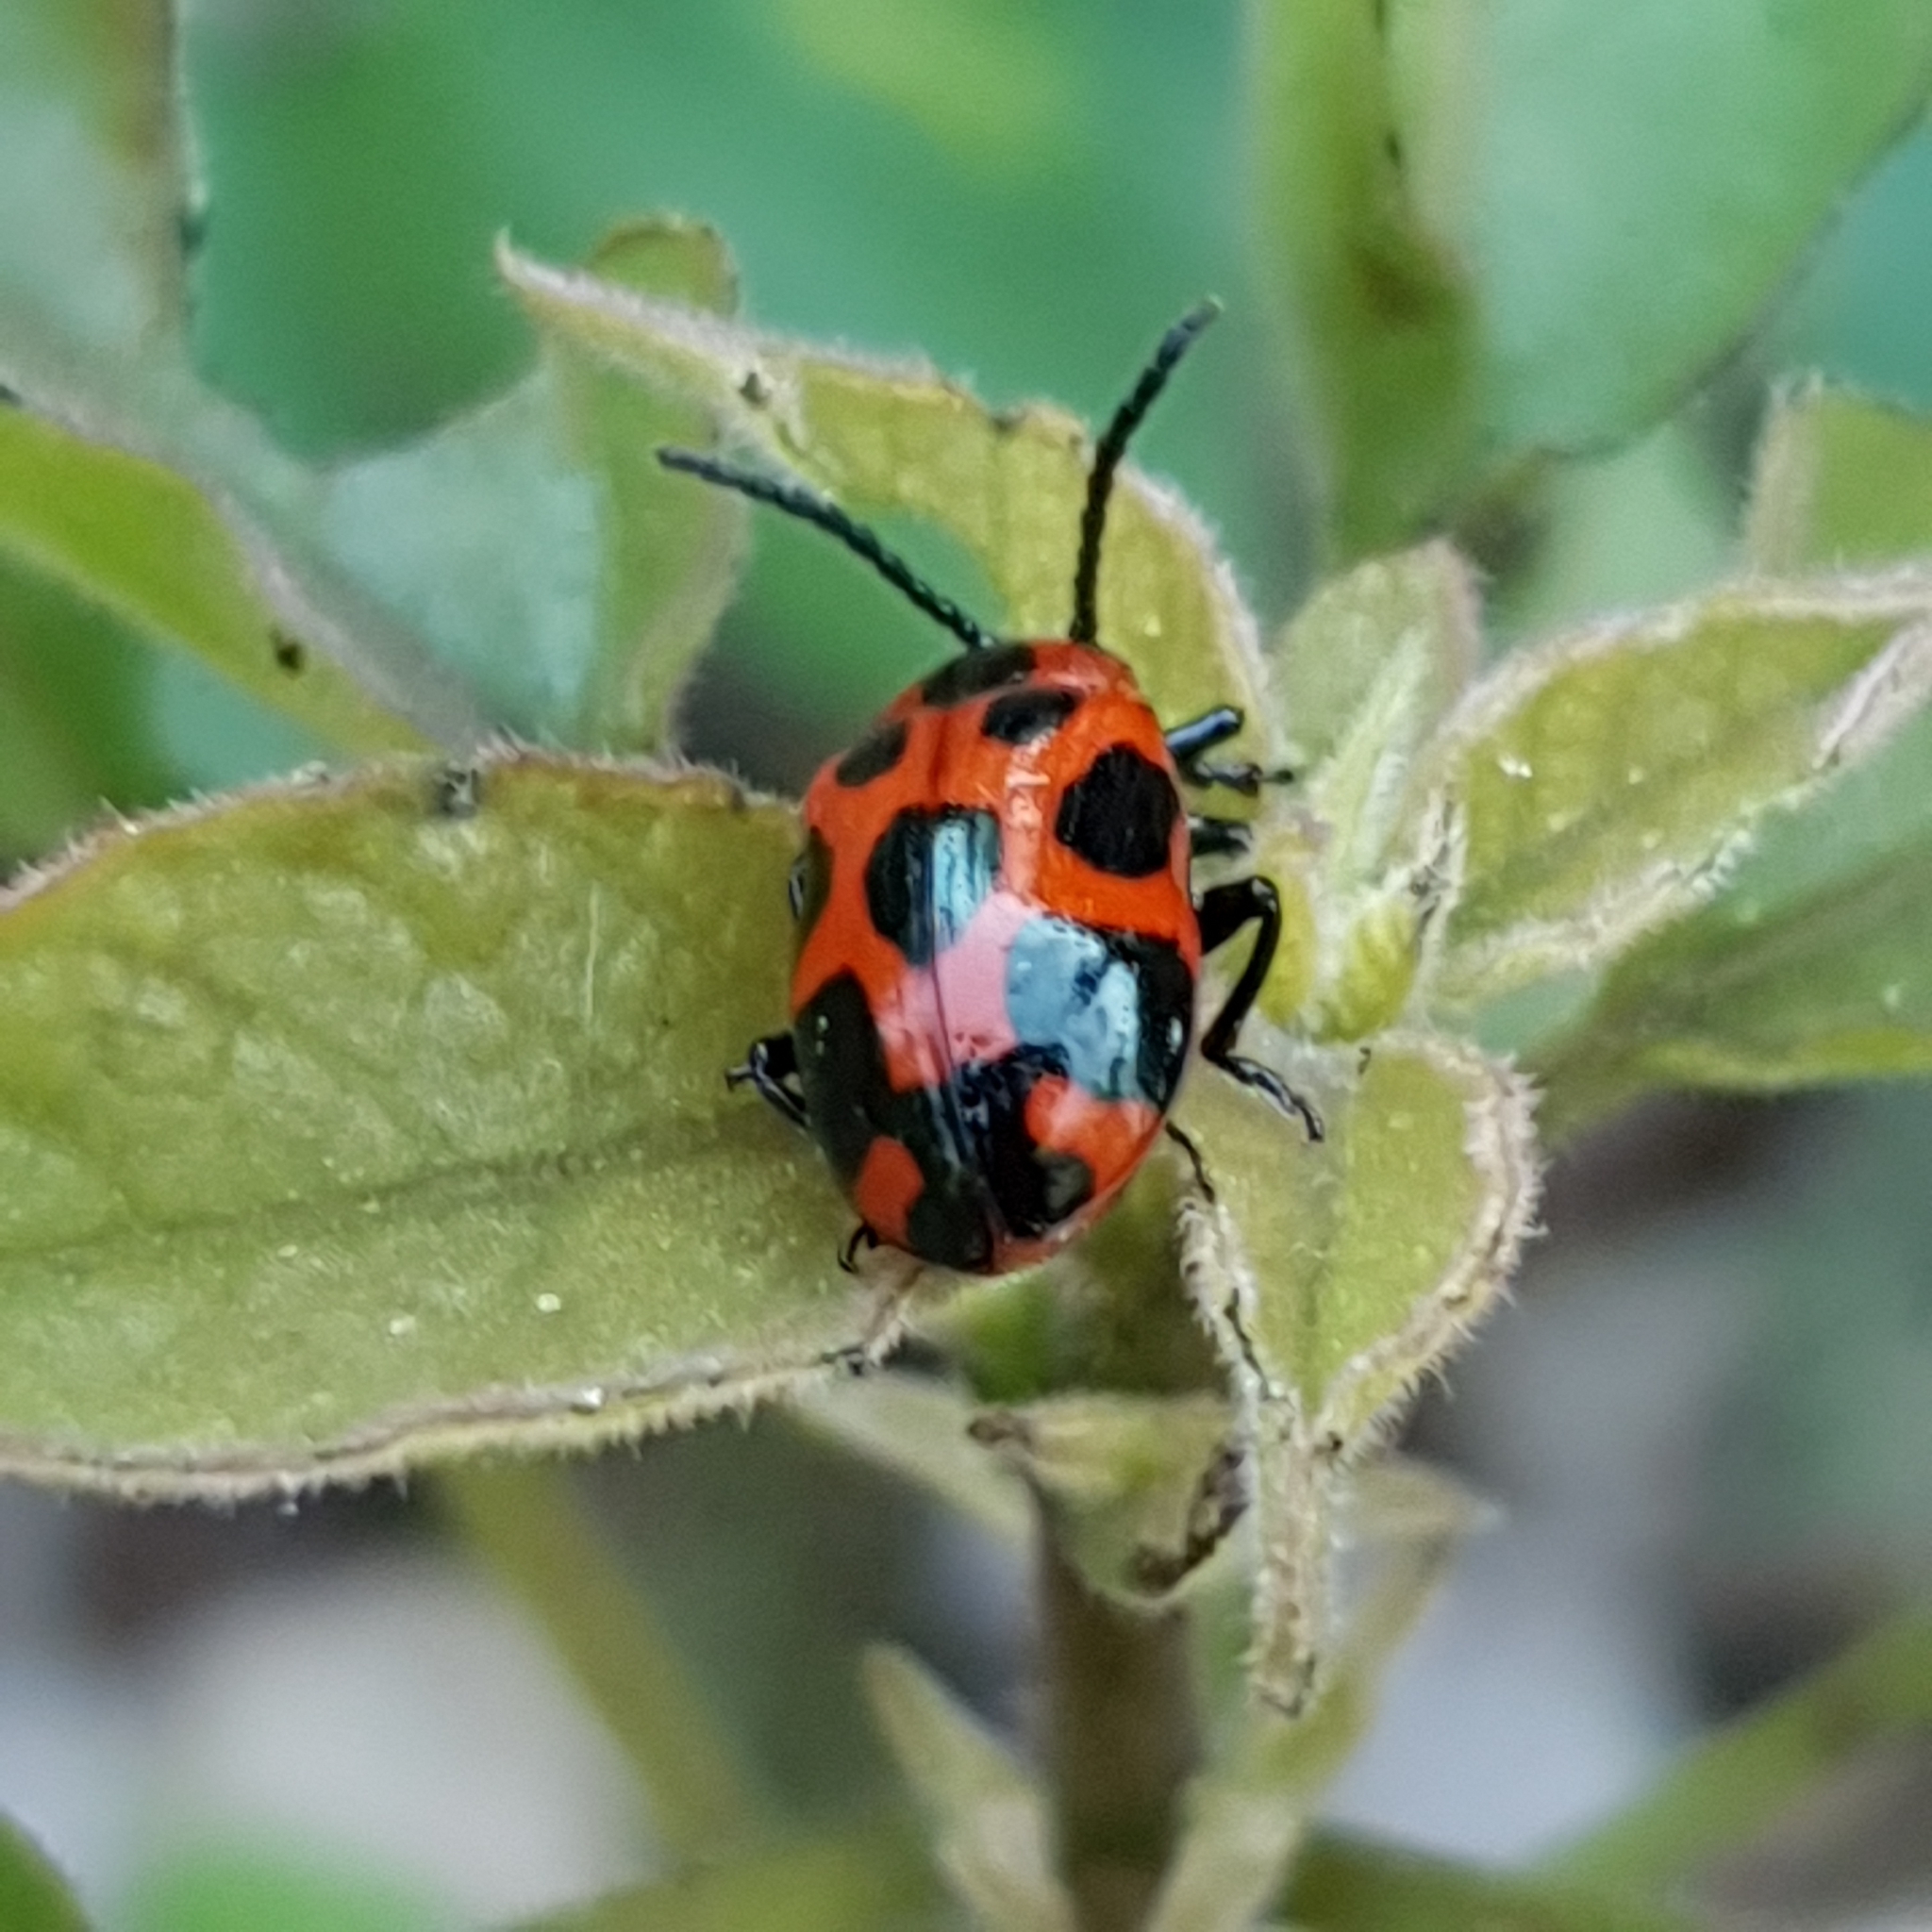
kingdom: Animalia
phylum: Arthropoda
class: Insecta
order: Coleoptera
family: Chrysomelidae
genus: Phyllocharis
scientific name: Phyllocharis
